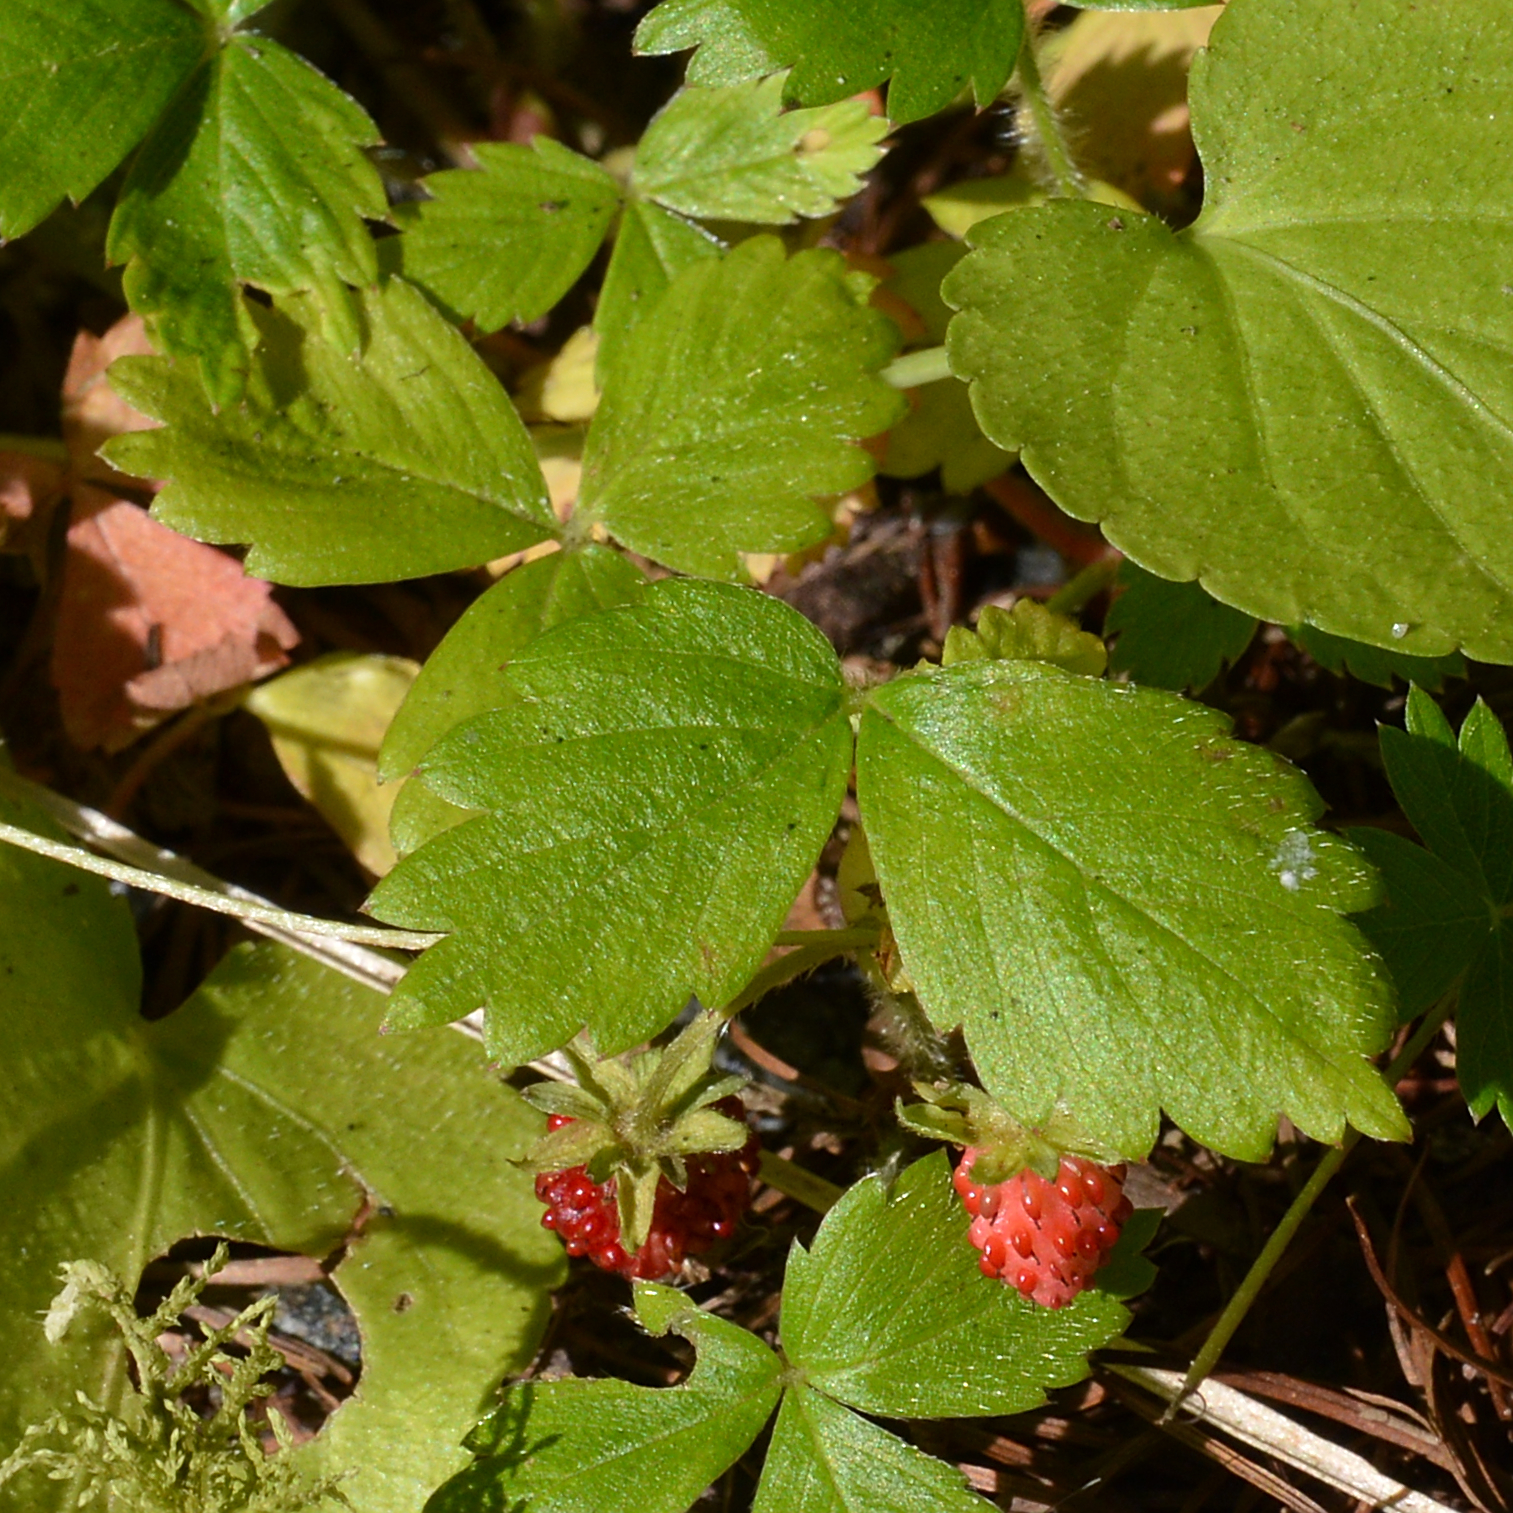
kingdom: Plantae
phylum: Tracheophyta
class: Magnoliopsida
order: Rosales
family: Rosaceae
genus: Fragaria
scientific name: Fragaria vesca
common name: Wild strawberry
